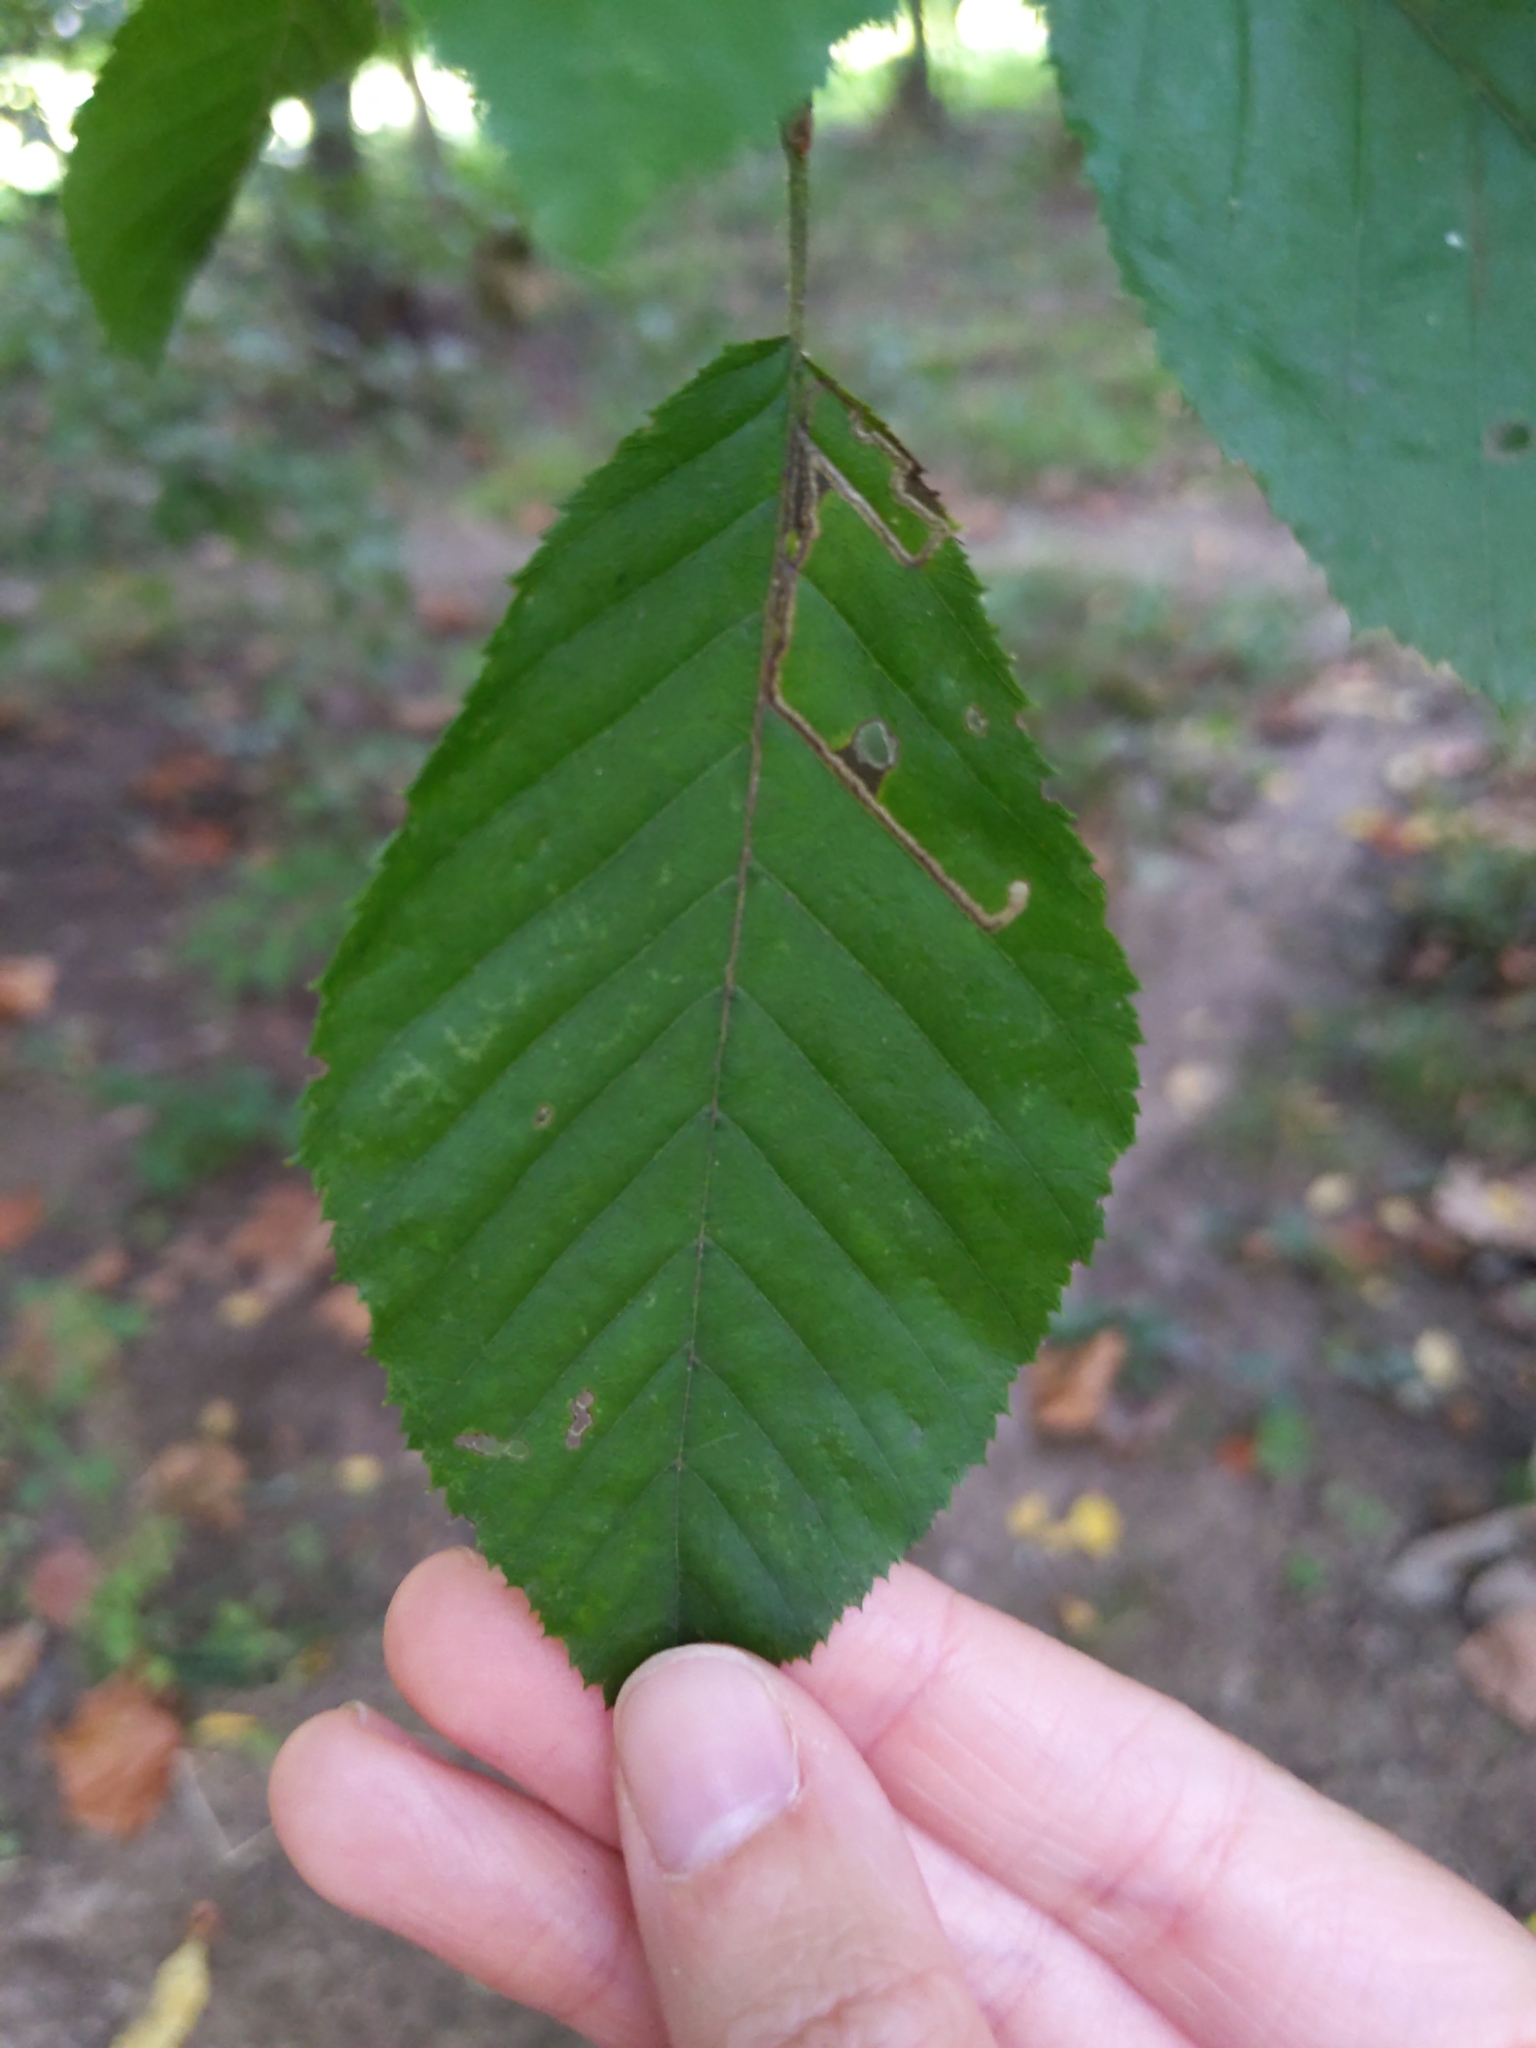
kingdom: Animalia
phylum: Arthropoda
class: Insecta
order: Lepidoptera
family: Nepticulidae
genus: Stigmella
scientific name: Stigmella
